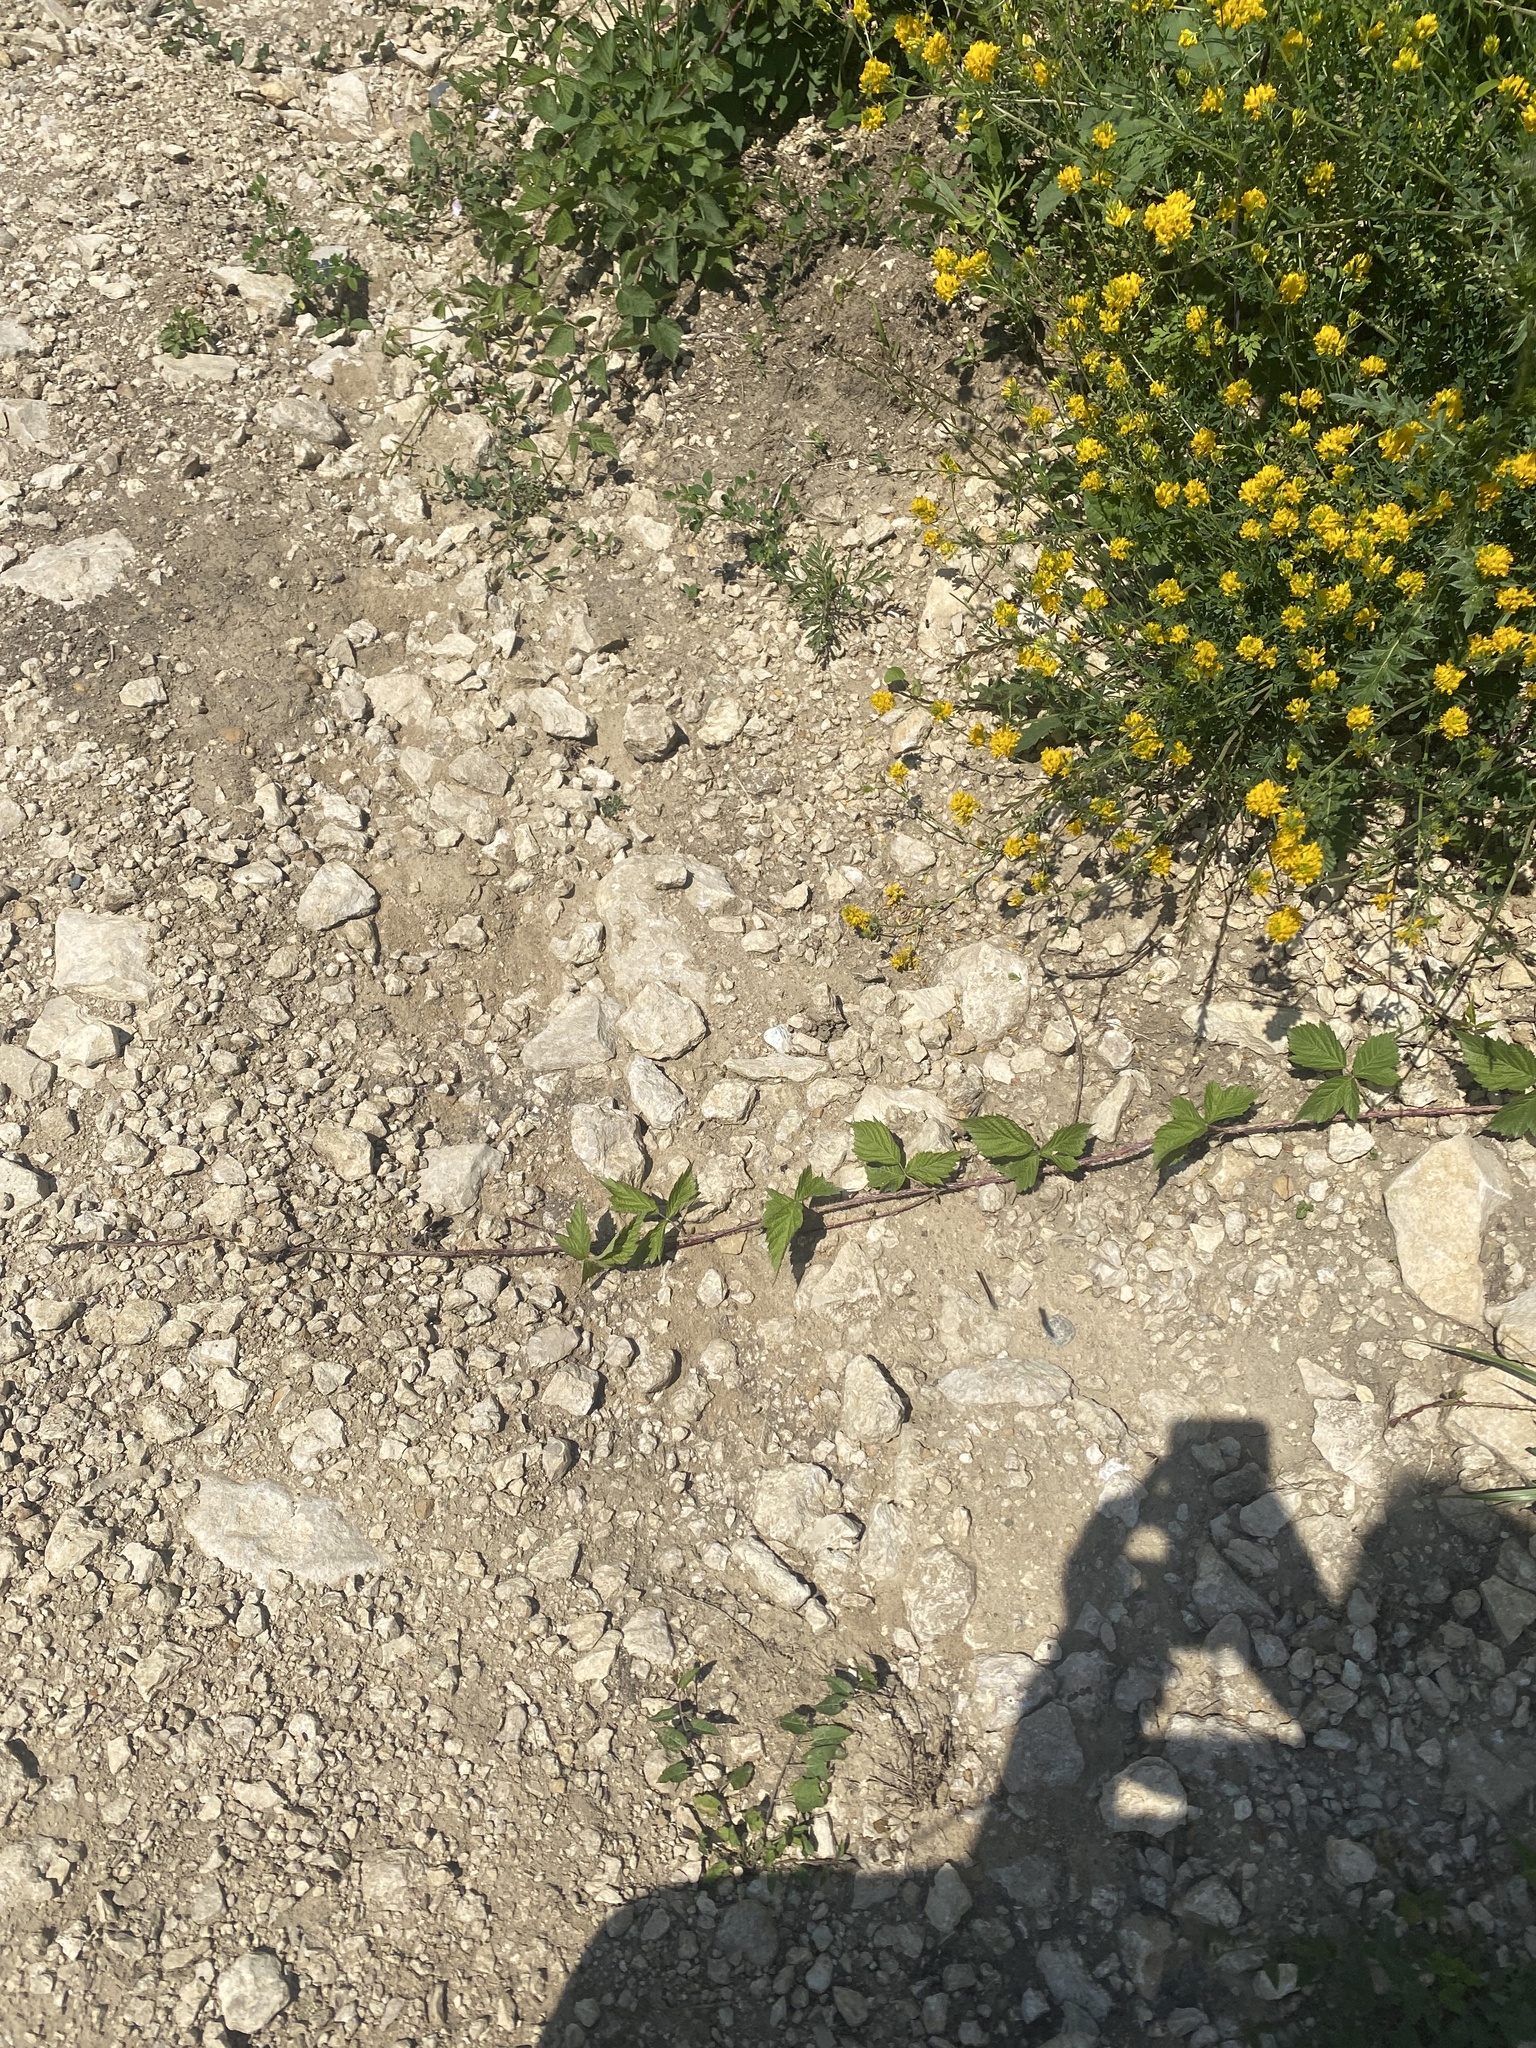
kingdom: Animalia
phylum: Arthropoda
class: Insecta
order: Lepidoptera
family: Nymphalidae
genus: Vanessa
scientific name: Vanessa cardui
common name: Painted lady
